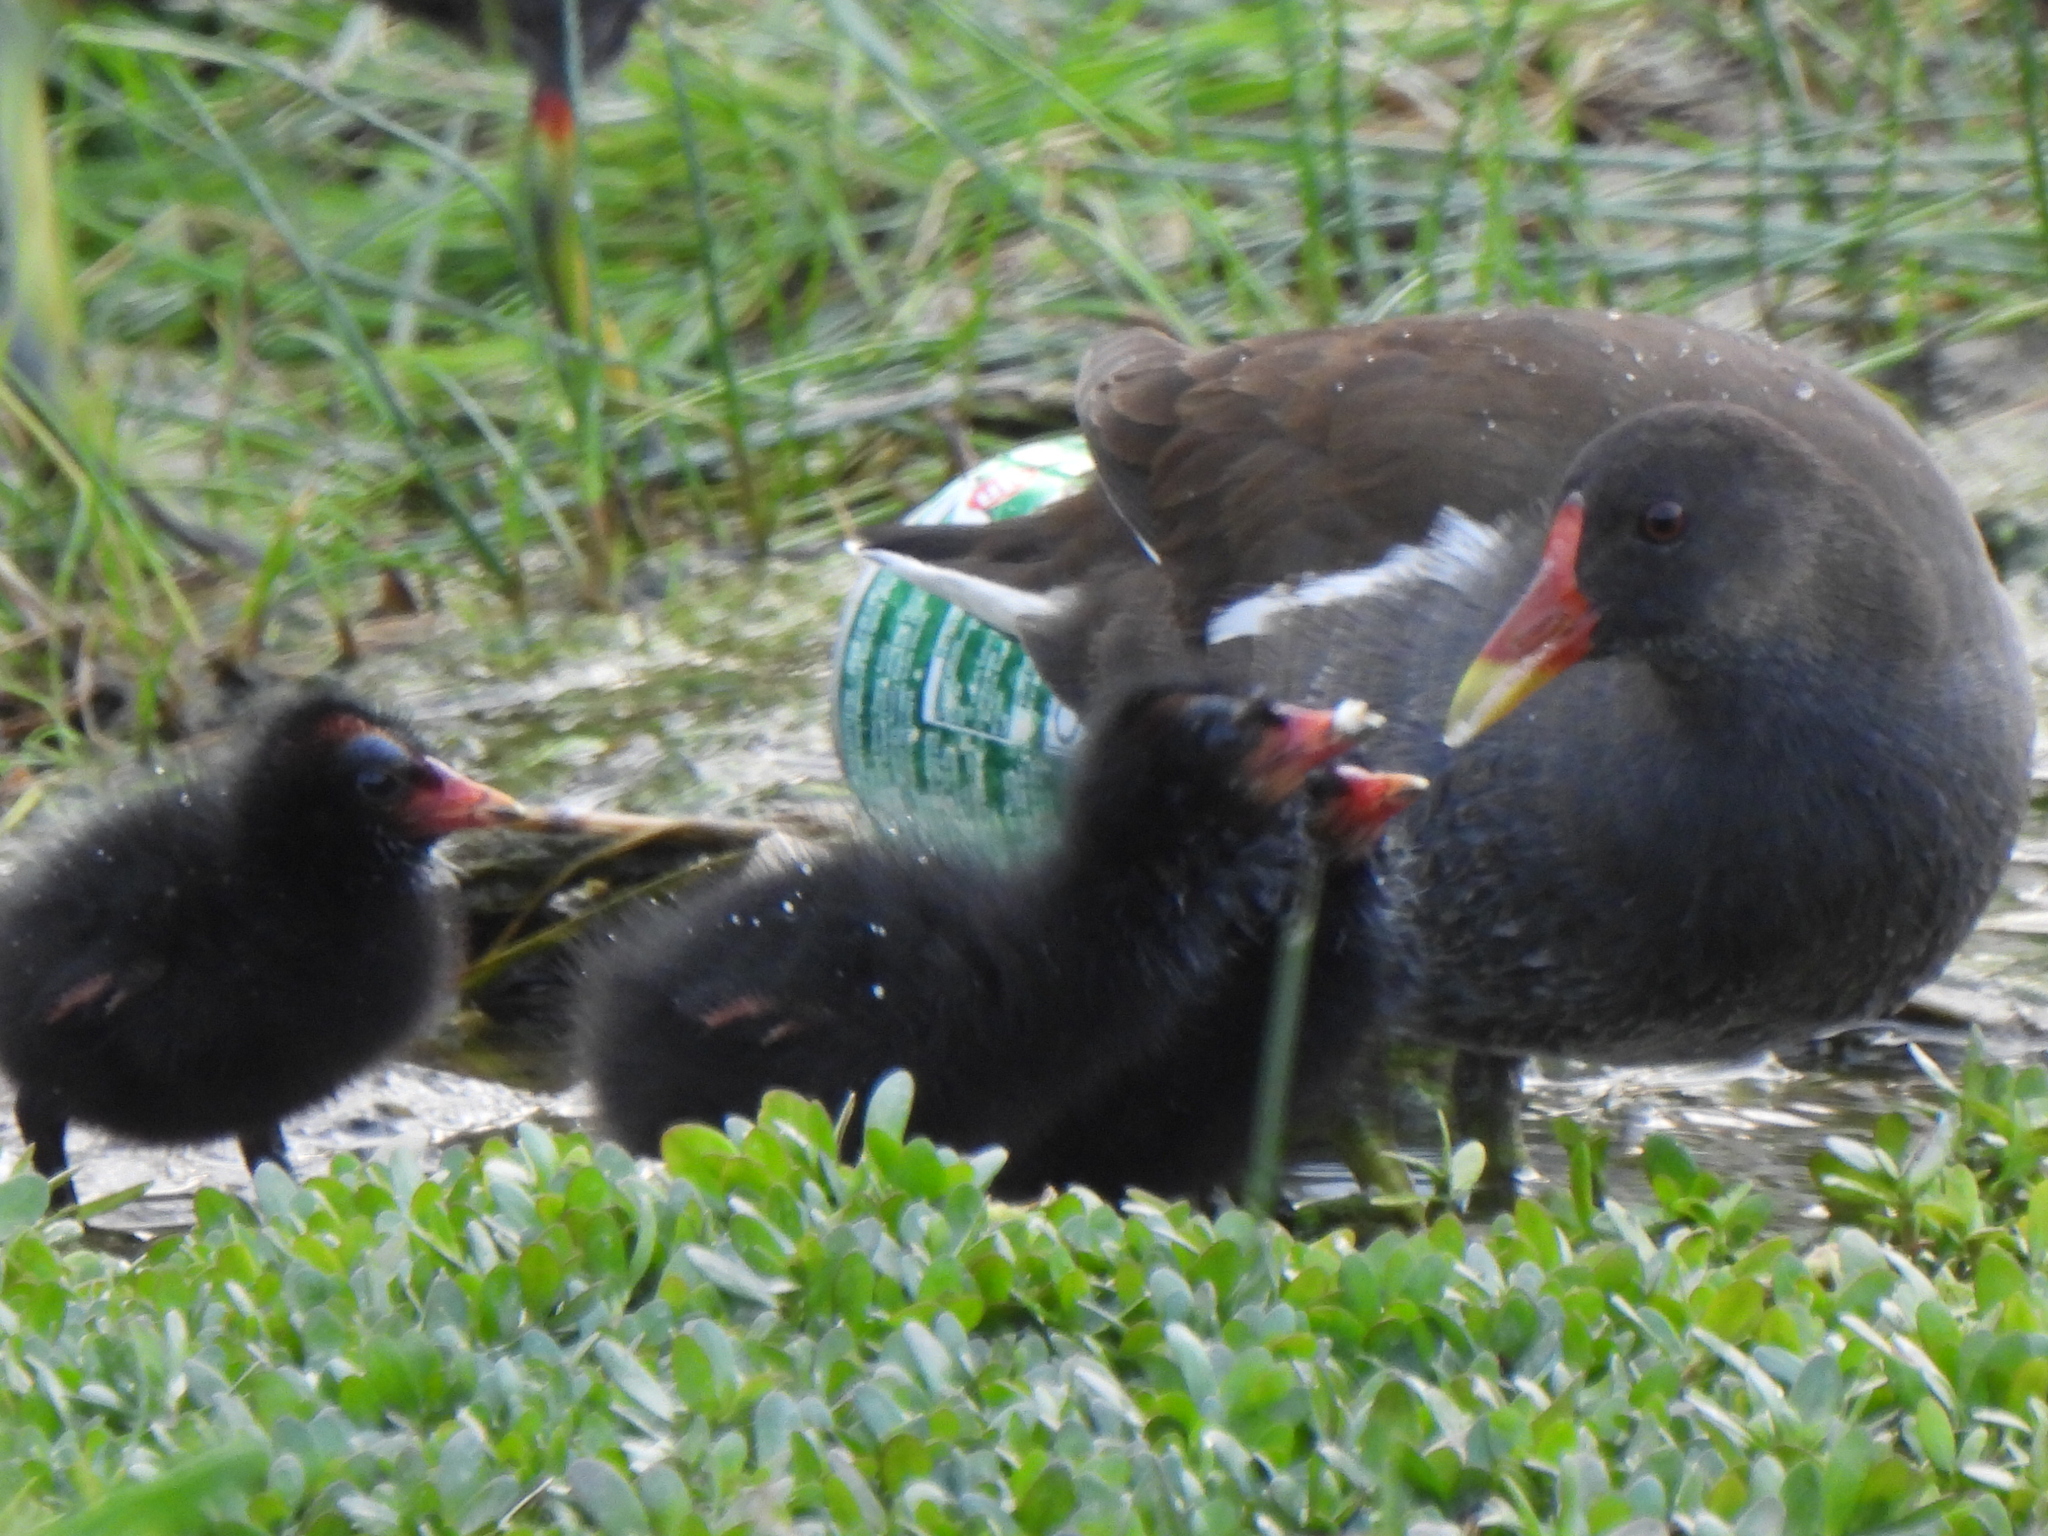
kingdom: Animalia
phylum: Chordata
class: Aves
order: Gruiformes
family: Rallidae
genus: Gallinula
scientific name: Gallinula chloropus
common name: Common moorhen
